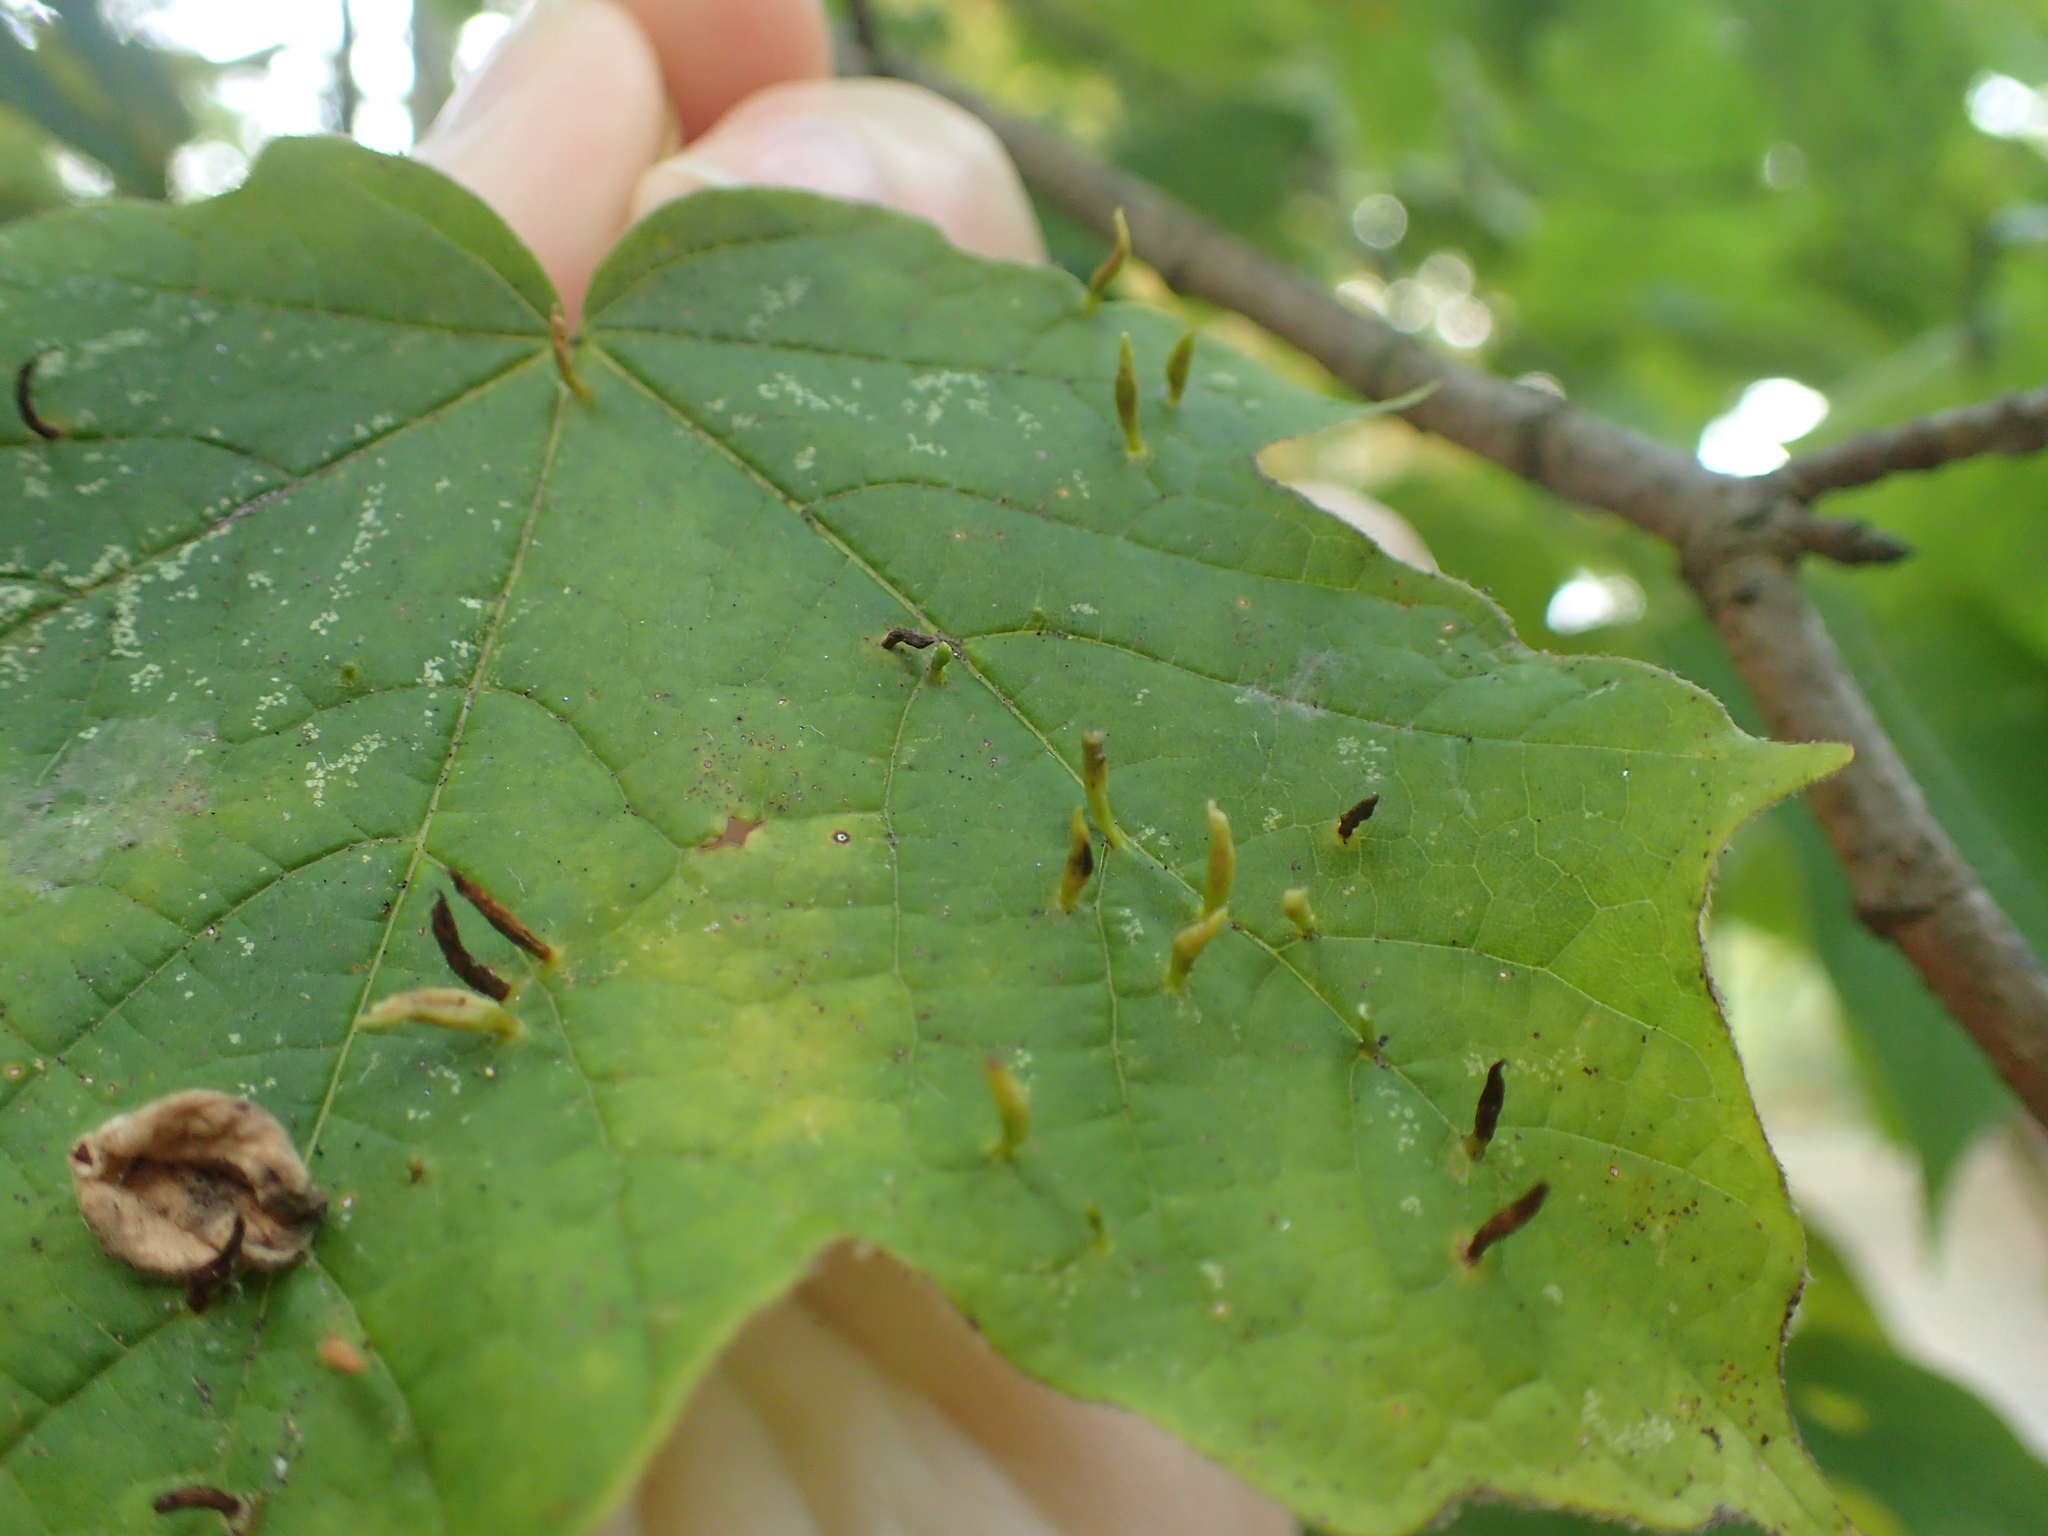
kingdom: Animalia
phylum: Arthropoda
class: Arachnida
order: Trombidiformes
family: Eriophyidae
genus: Vasates
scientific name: Vasates aceriscrumena
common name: Maple spindle gall mite
